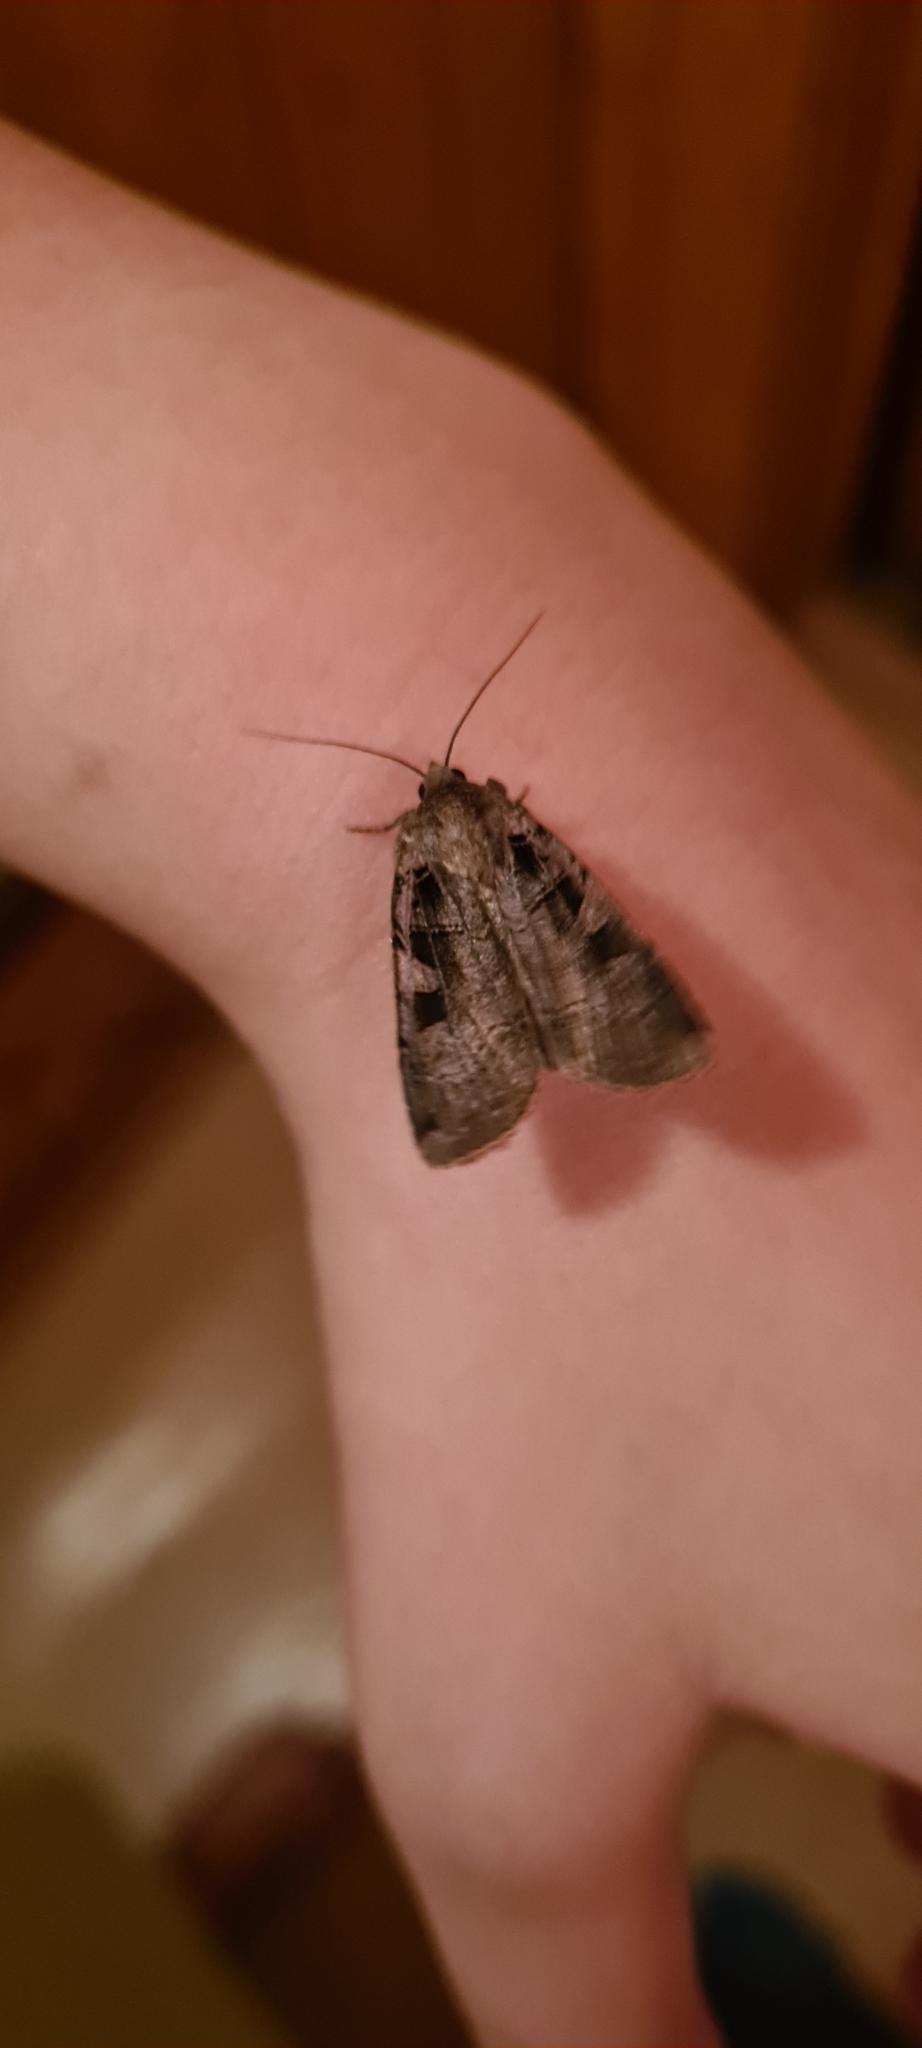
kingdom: Animalia
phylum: Arthropoda
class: Insecta
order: Lepidoptera
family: Noctuidae
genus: Xestia
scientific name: Xestia triangulum
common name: Double square-spot
